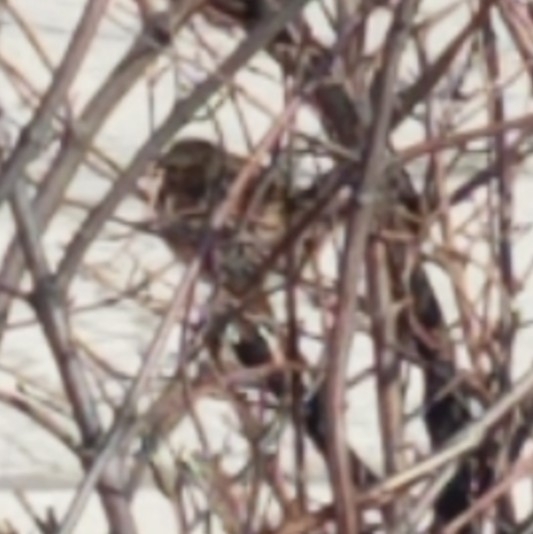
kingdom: Animalia
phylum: Chordata
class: Aves
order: Passeriformes
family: Passerellidae
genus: Melospiza
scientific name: Melospiza melodia
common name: Song sparrow
